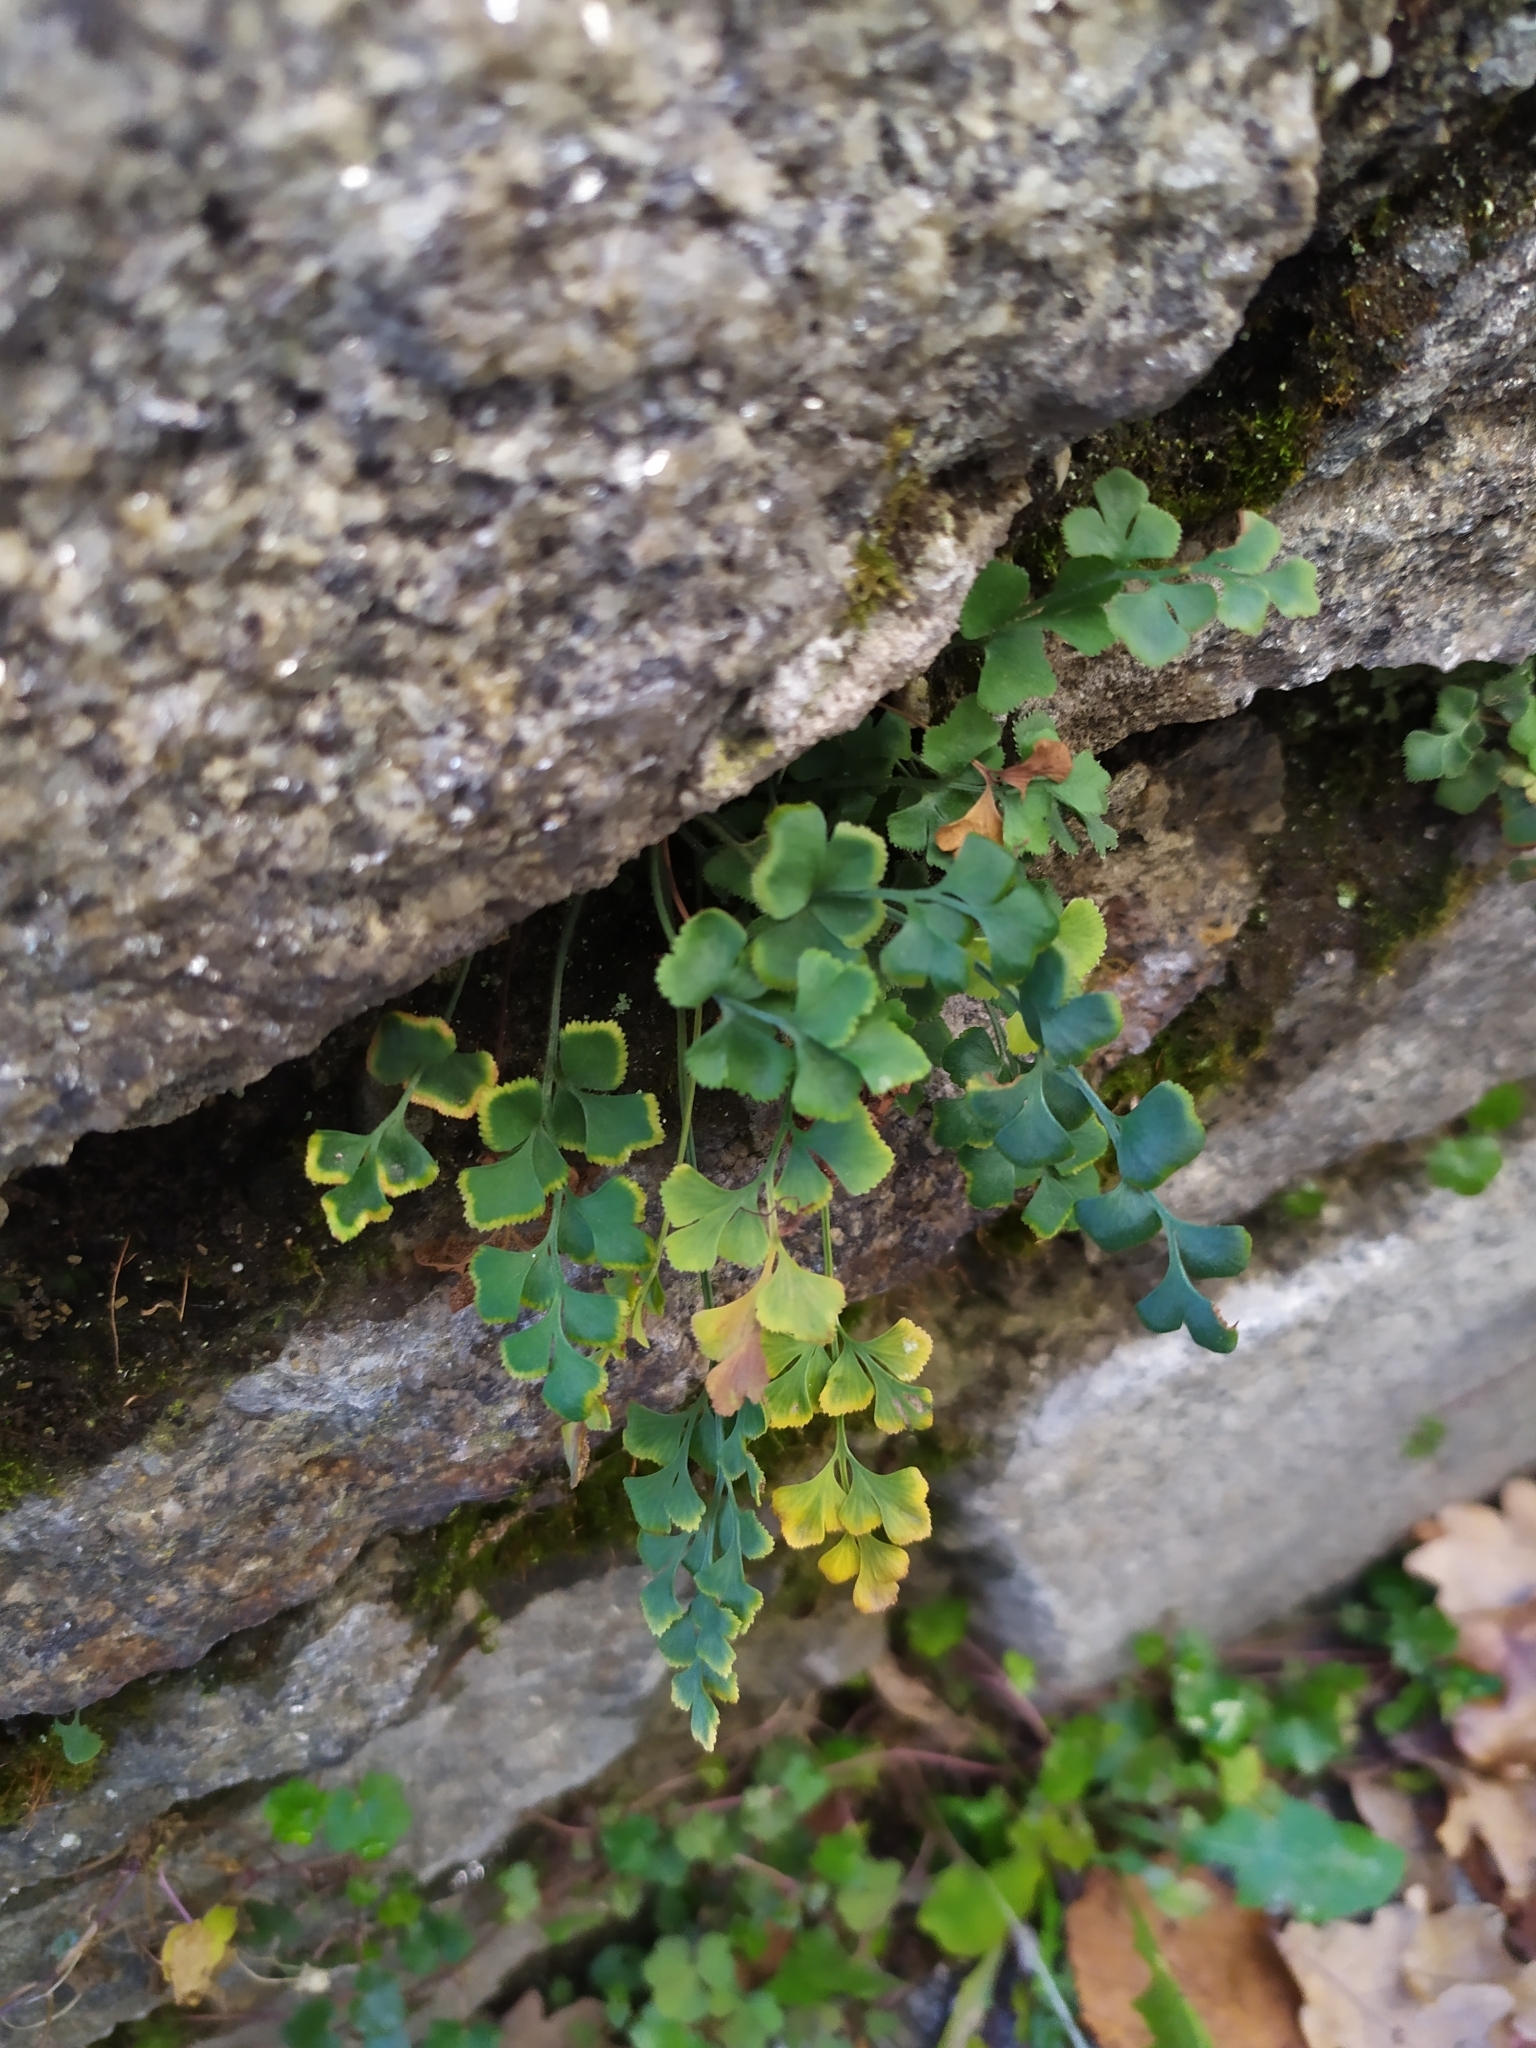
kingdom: Plantae
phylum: Tracheophyta
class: Polypodiopsida
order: Polypodiales
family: Aspleniaceae
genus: Asplenium
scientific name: Asplenium ruta-muraria
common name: Wall-rue
